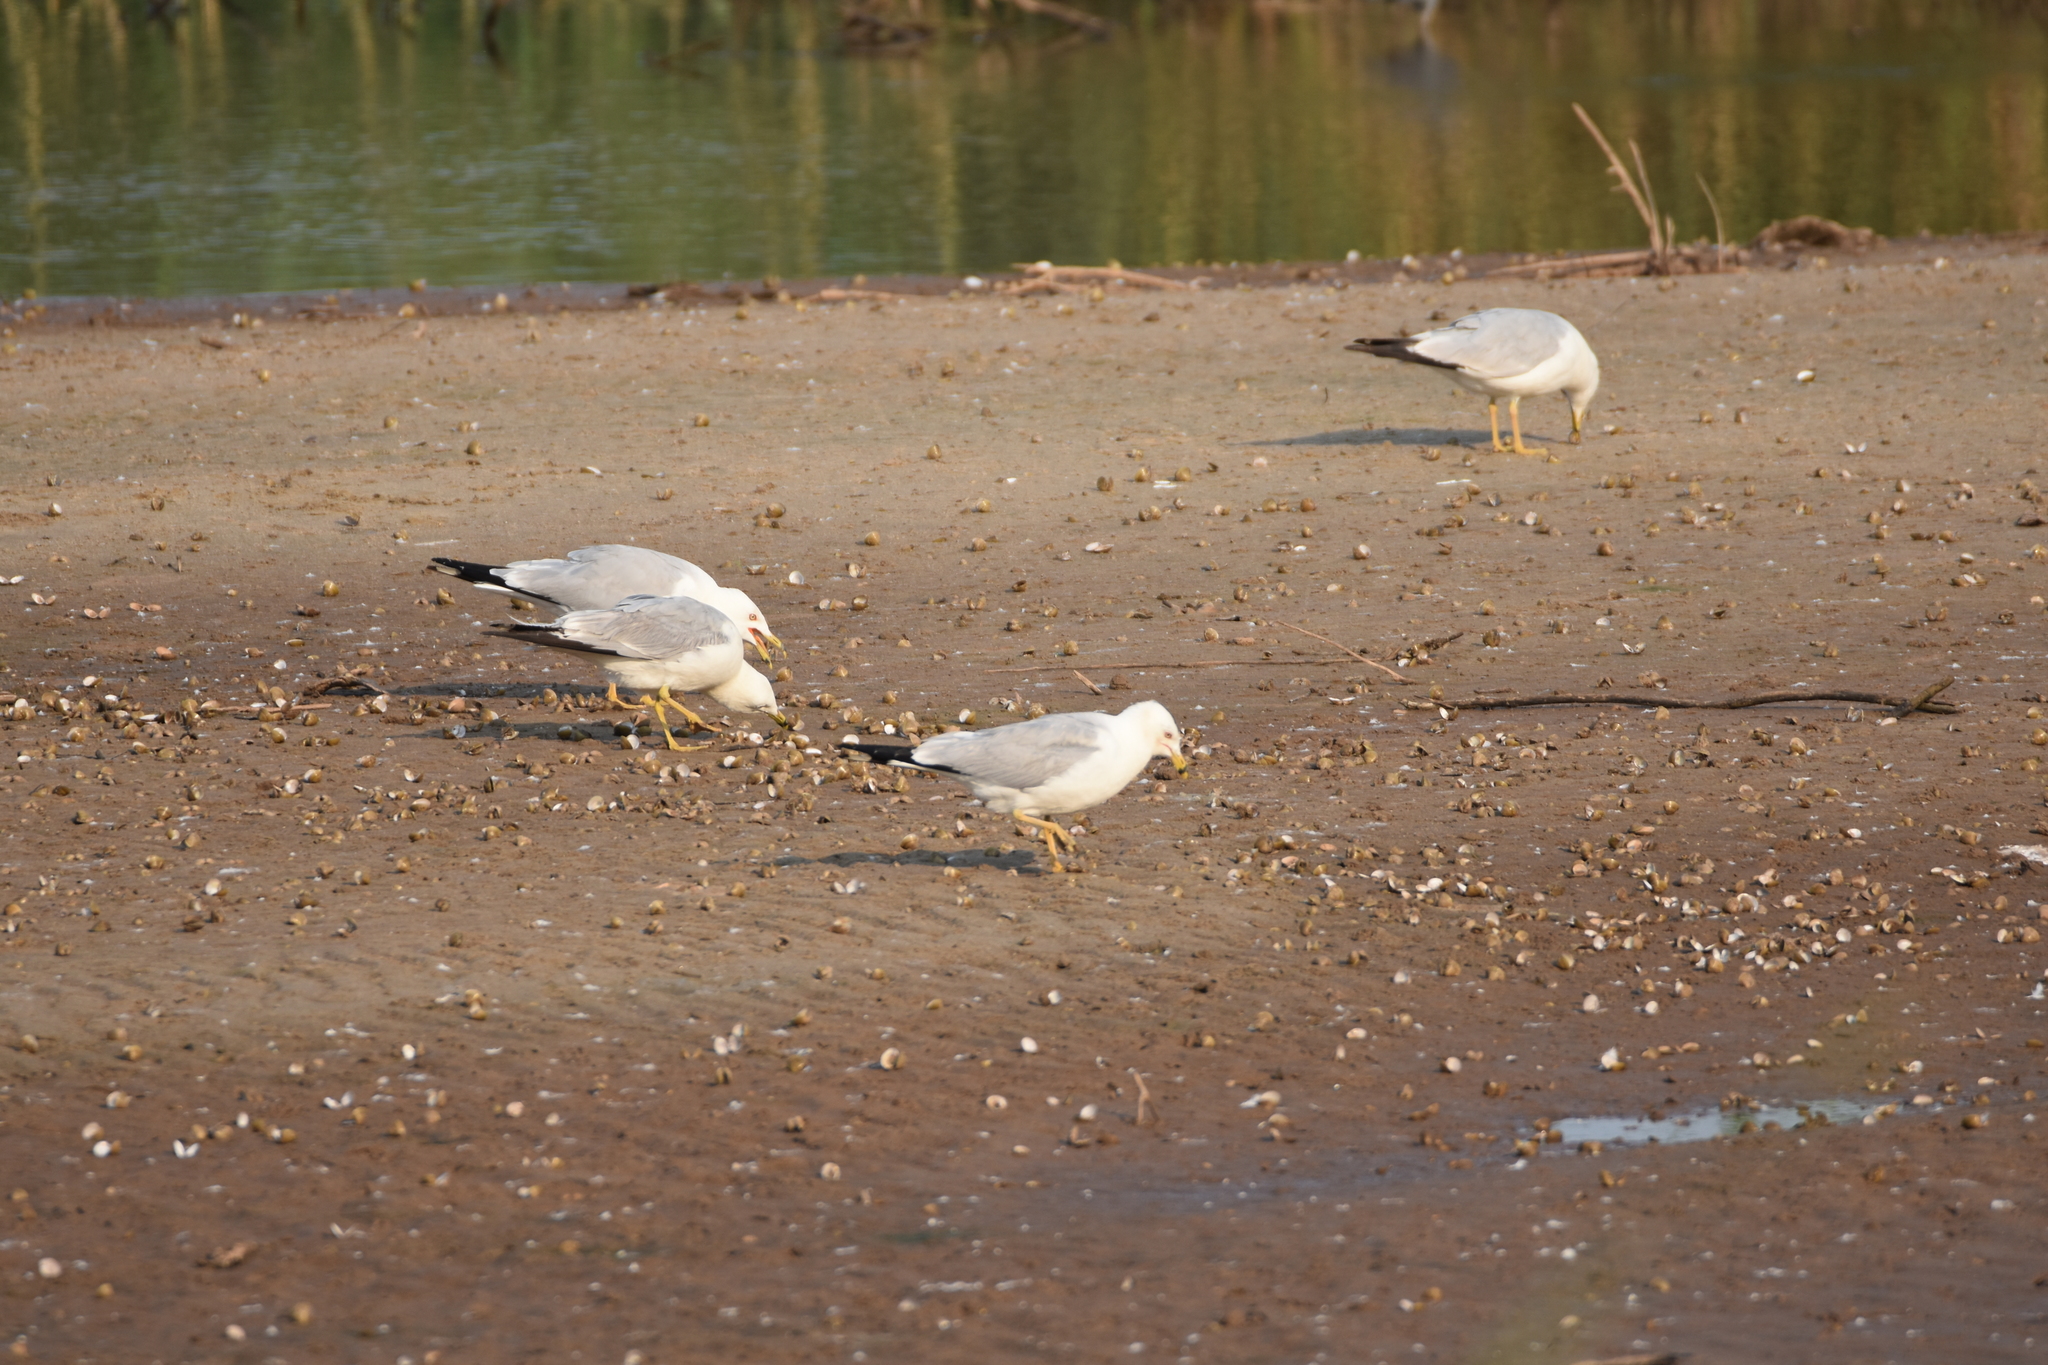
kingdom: Animalia
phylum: Chordata
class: Aves
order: Charadriiformes
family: Laridae
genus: Larus
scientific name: Larus delawarensis
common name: Ring-billed gull
